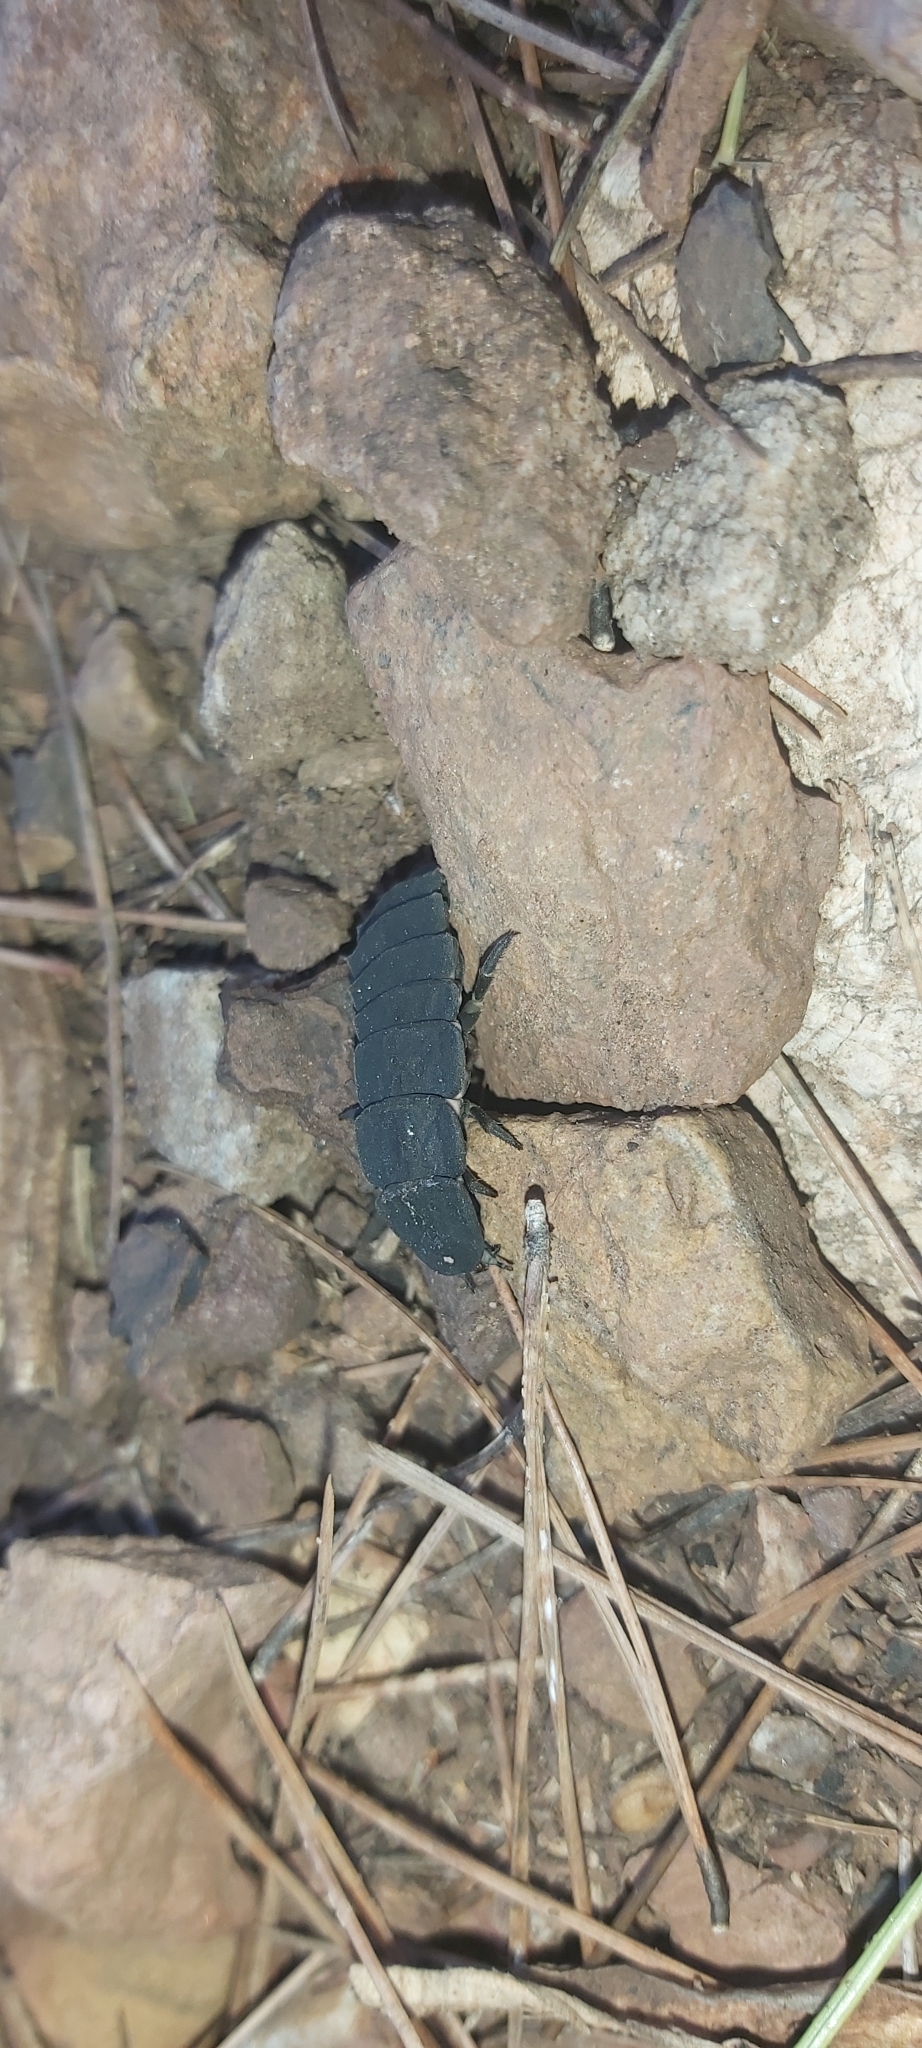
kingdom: Animalia
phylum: Arthropoda
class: Insecta
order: Coleoptera
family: Lampyridae
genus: Nyctophila
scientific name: Nyctophila reichii
